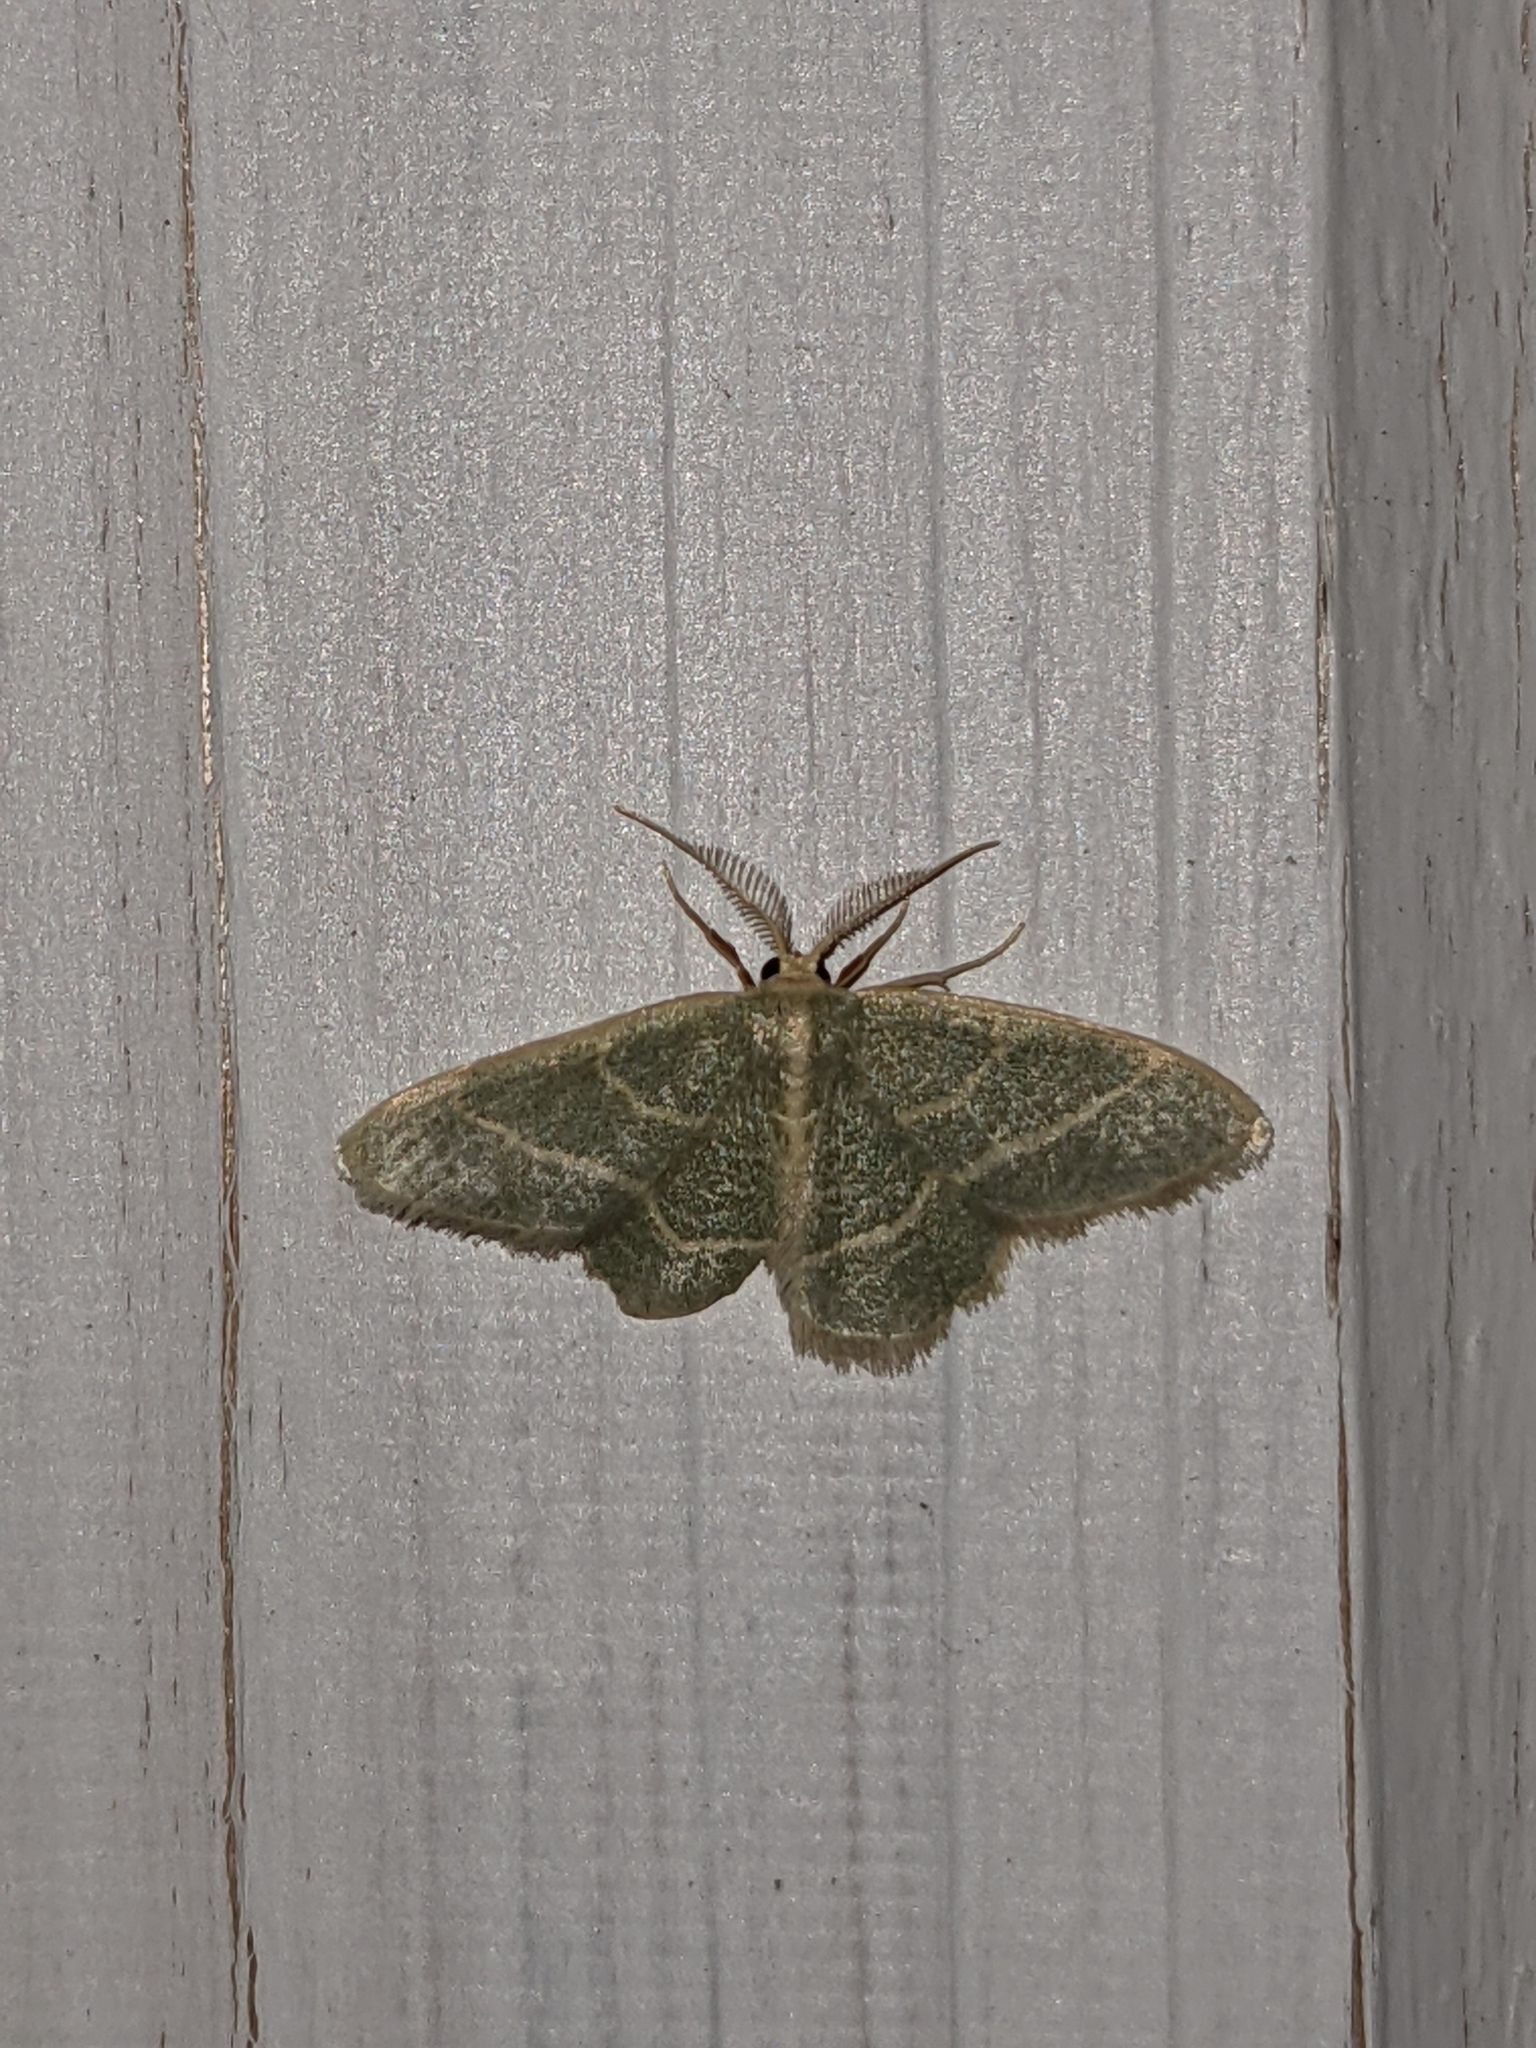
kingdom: Animalia
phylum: Arthropoda
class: Insecta
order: Lepidoptera
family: Geometridae
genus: Chlorochlamys
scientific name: Chlorochlamys chloroleucaria
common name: Blackberry looper
